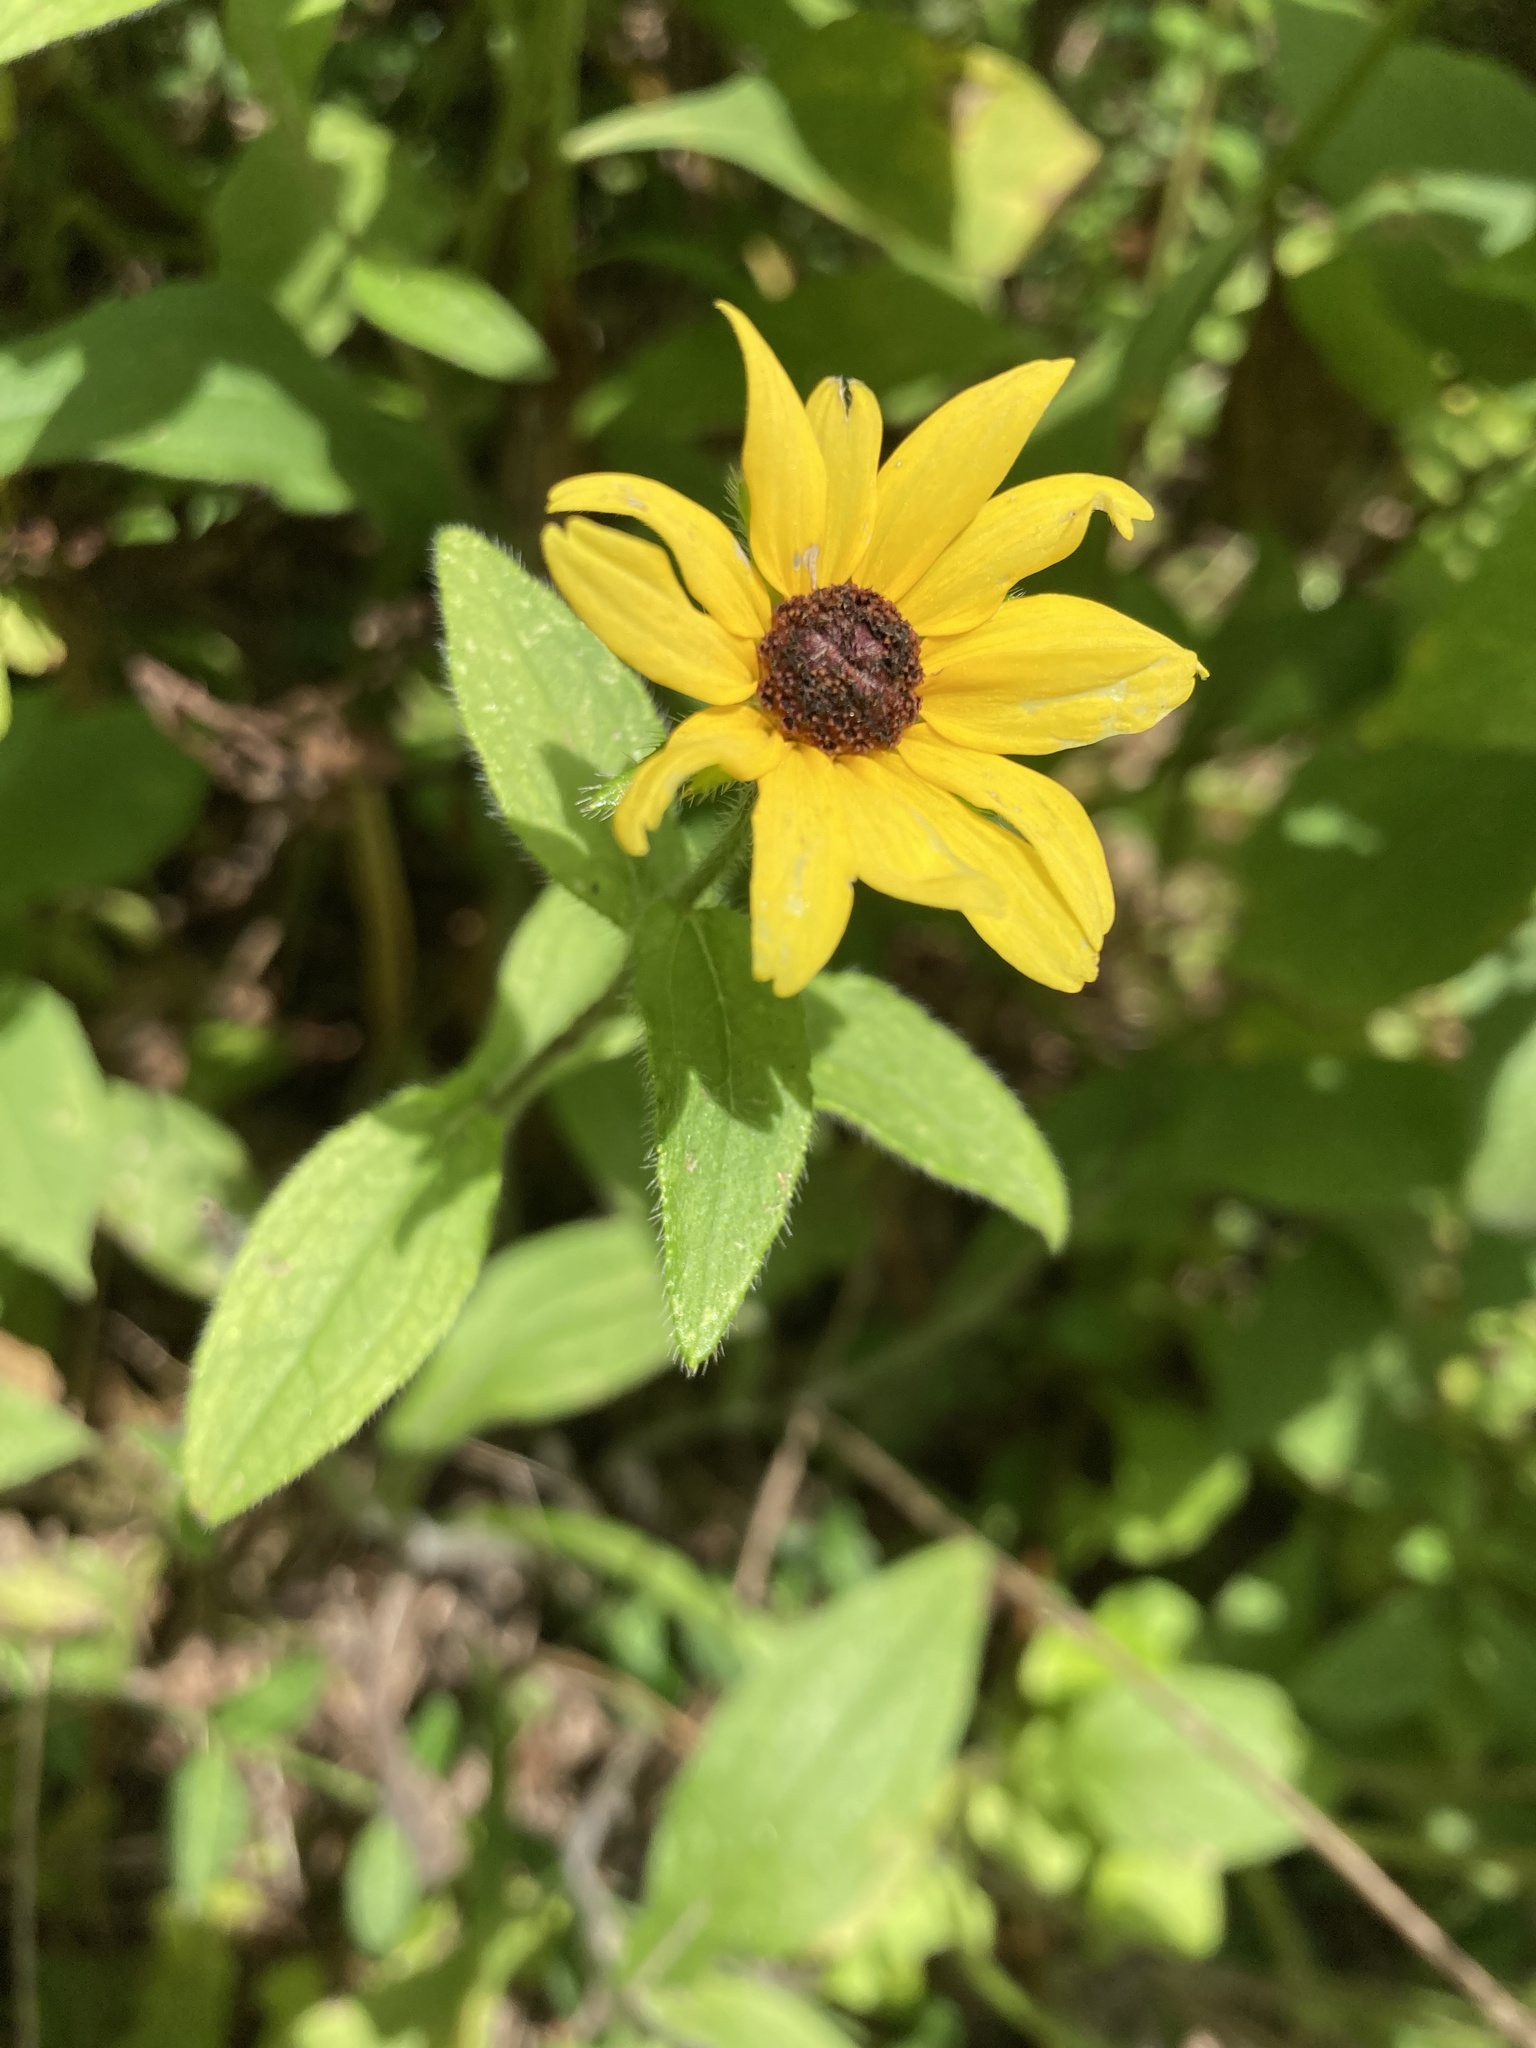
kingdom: Plantae
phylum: Tracheophyta
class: Magnoliopsida
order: Asterales
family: Asteraceae
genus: Rudbeckia
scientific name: Rudbeckia hirta
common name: Black-eyed-susan
